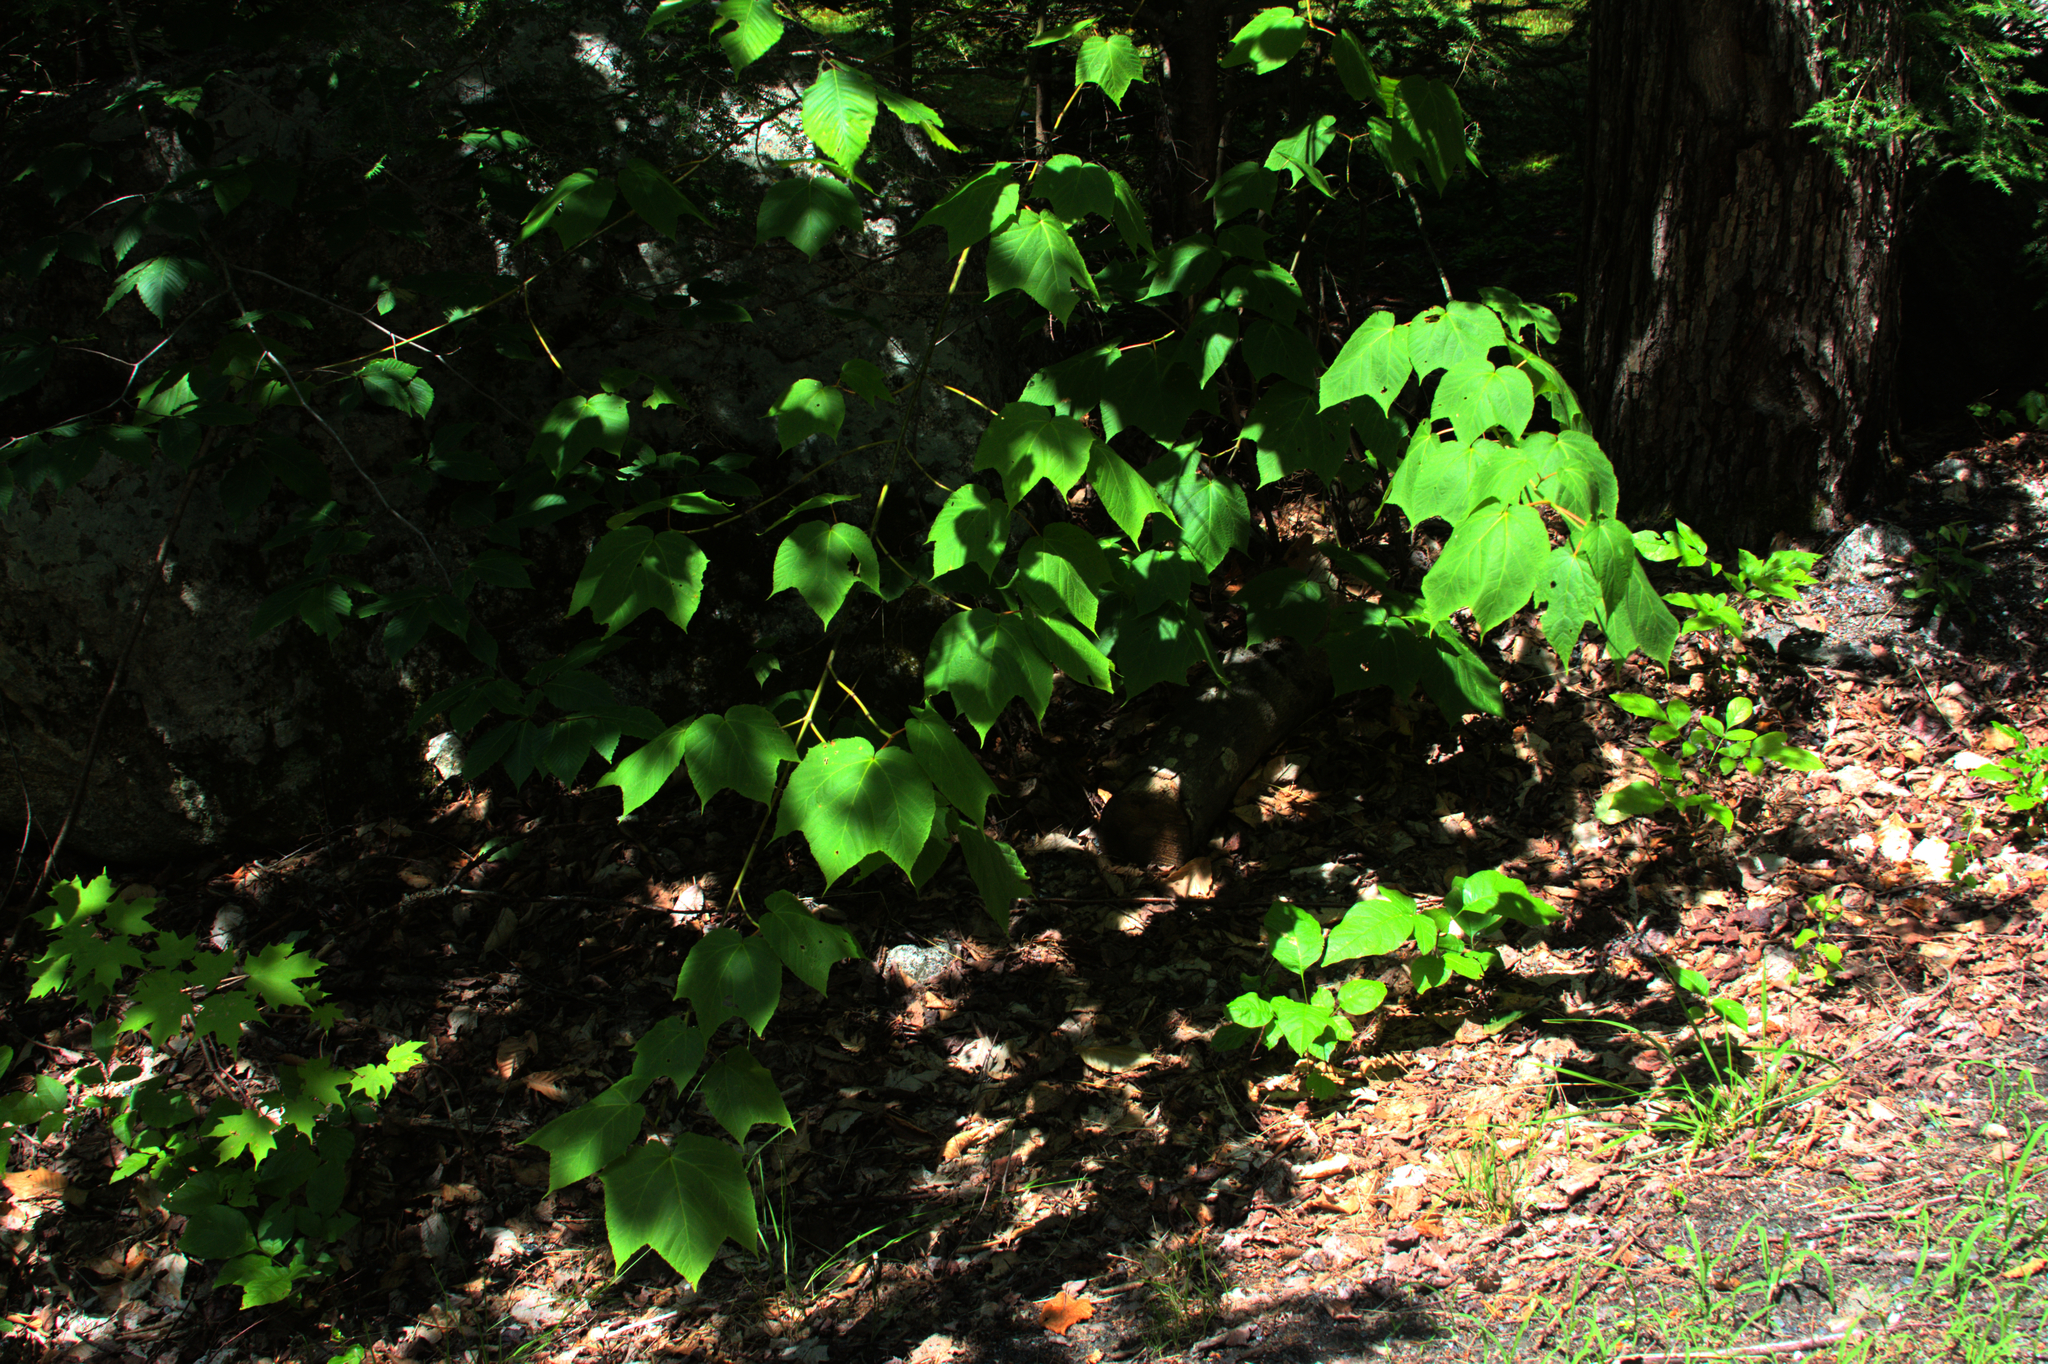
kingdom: Plantae
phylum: Tracheophyta
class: Magnoliopsida
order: Sapindales
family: Sapindaceae
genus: Acer
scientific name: Acer pensylvanicum
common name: Moosewood
